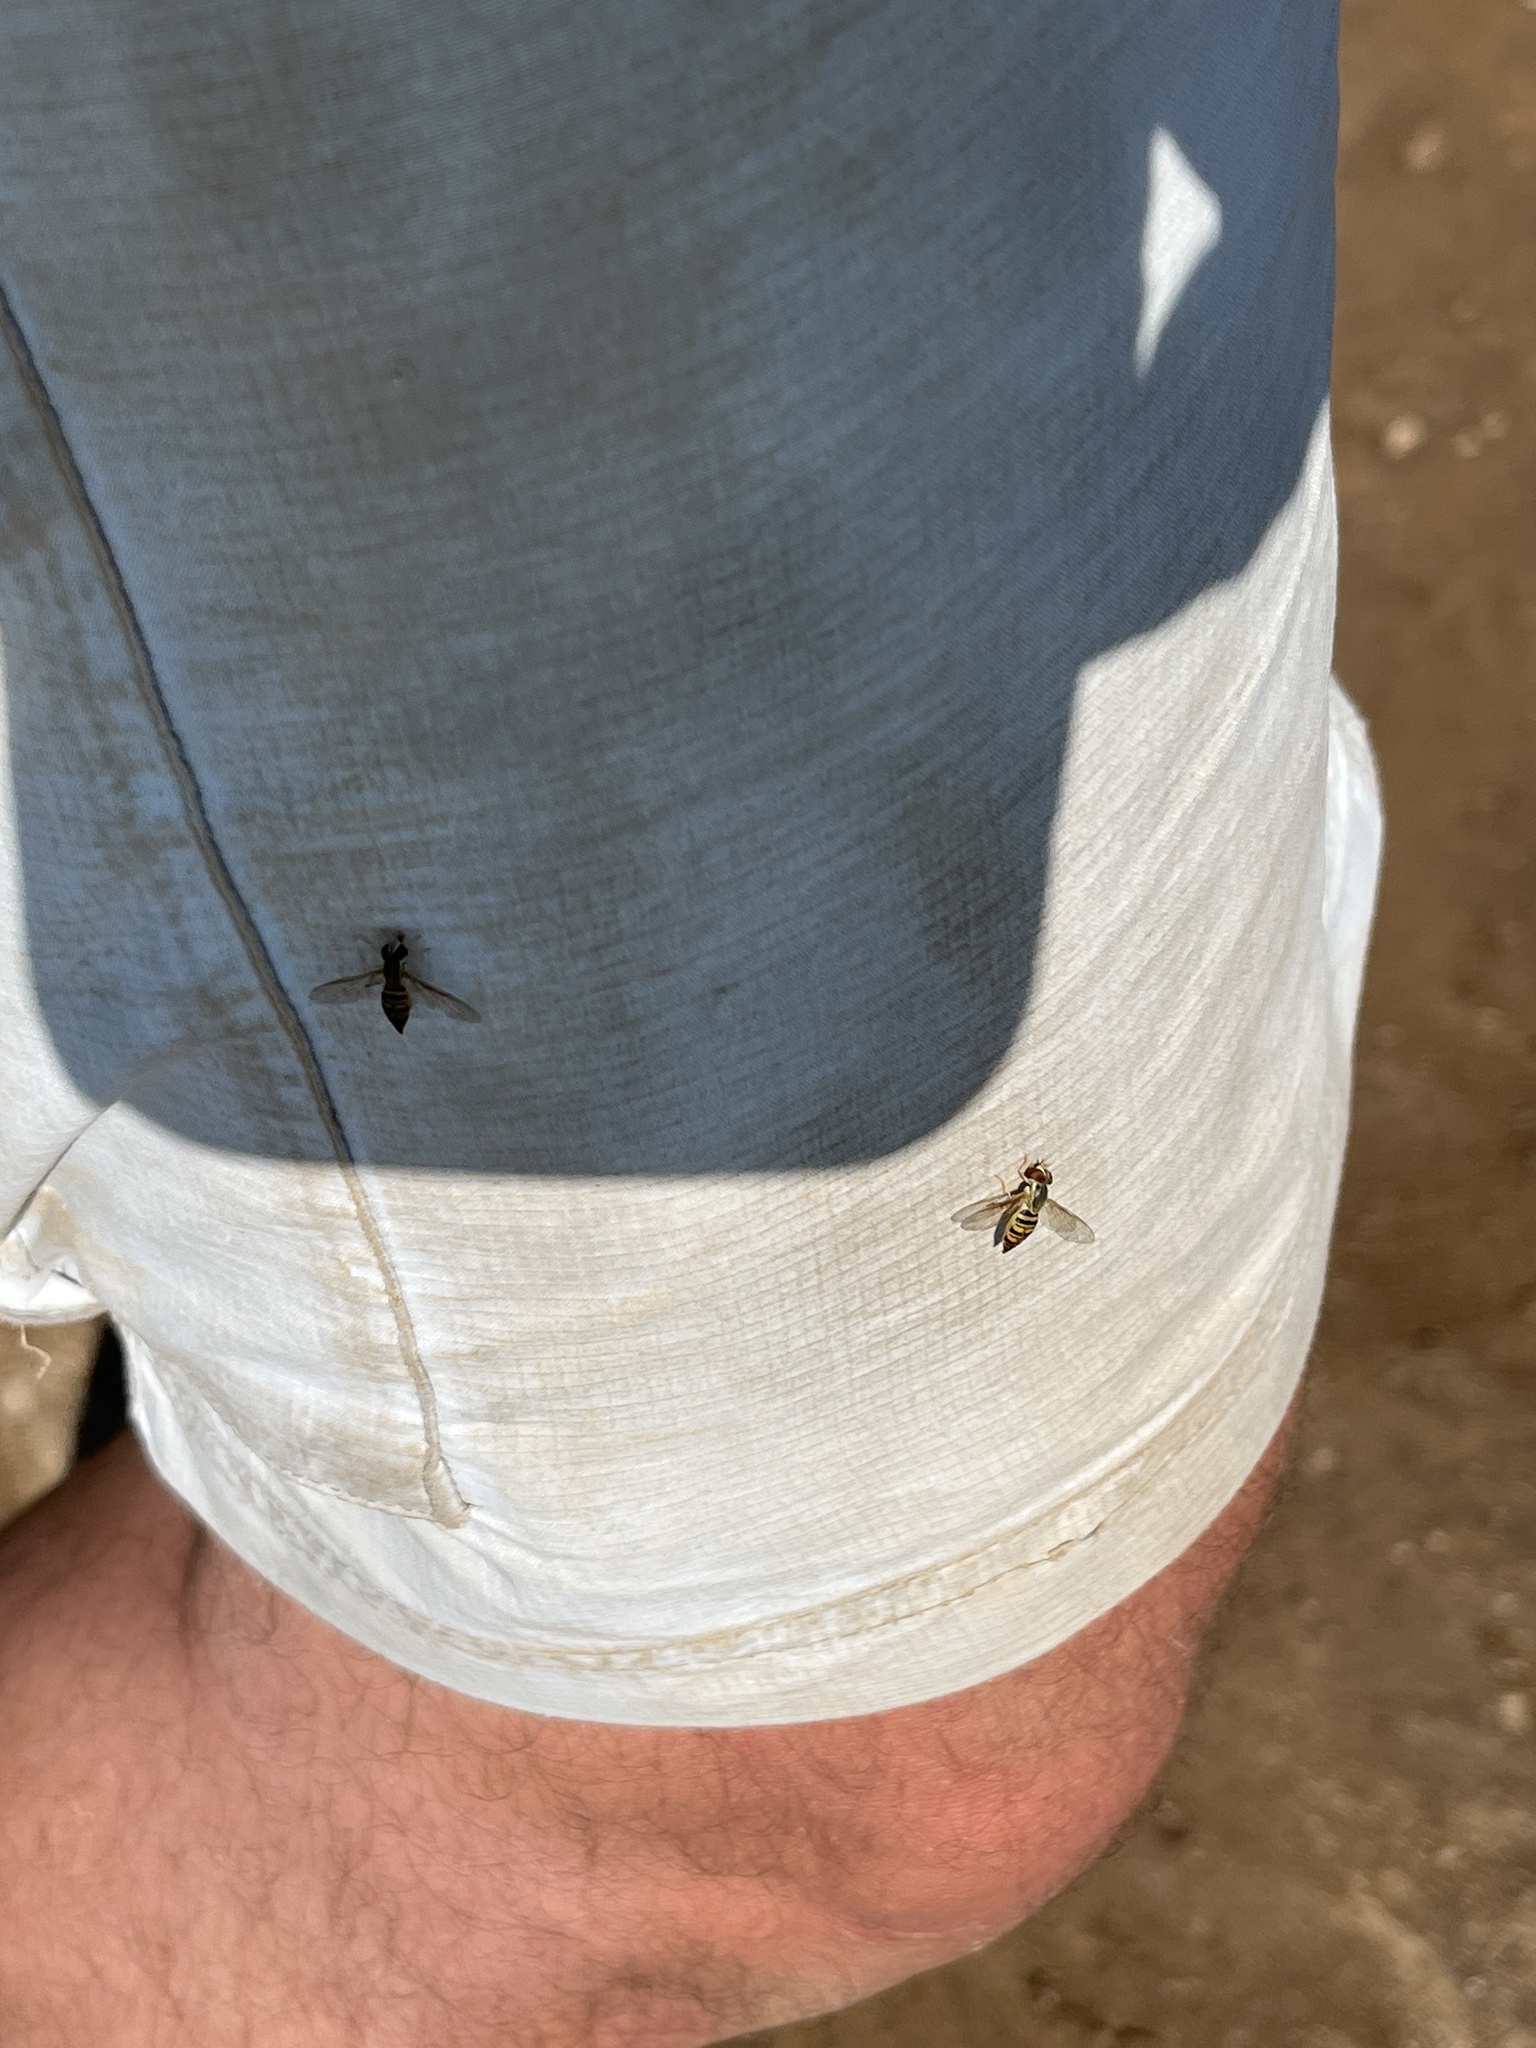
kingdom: Animalia
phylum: Arthropoda
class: Insecta
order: Diptera
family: Syrphidae
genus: Toxomerus
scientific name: Toxomerus politus
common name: Maize calligrapher
